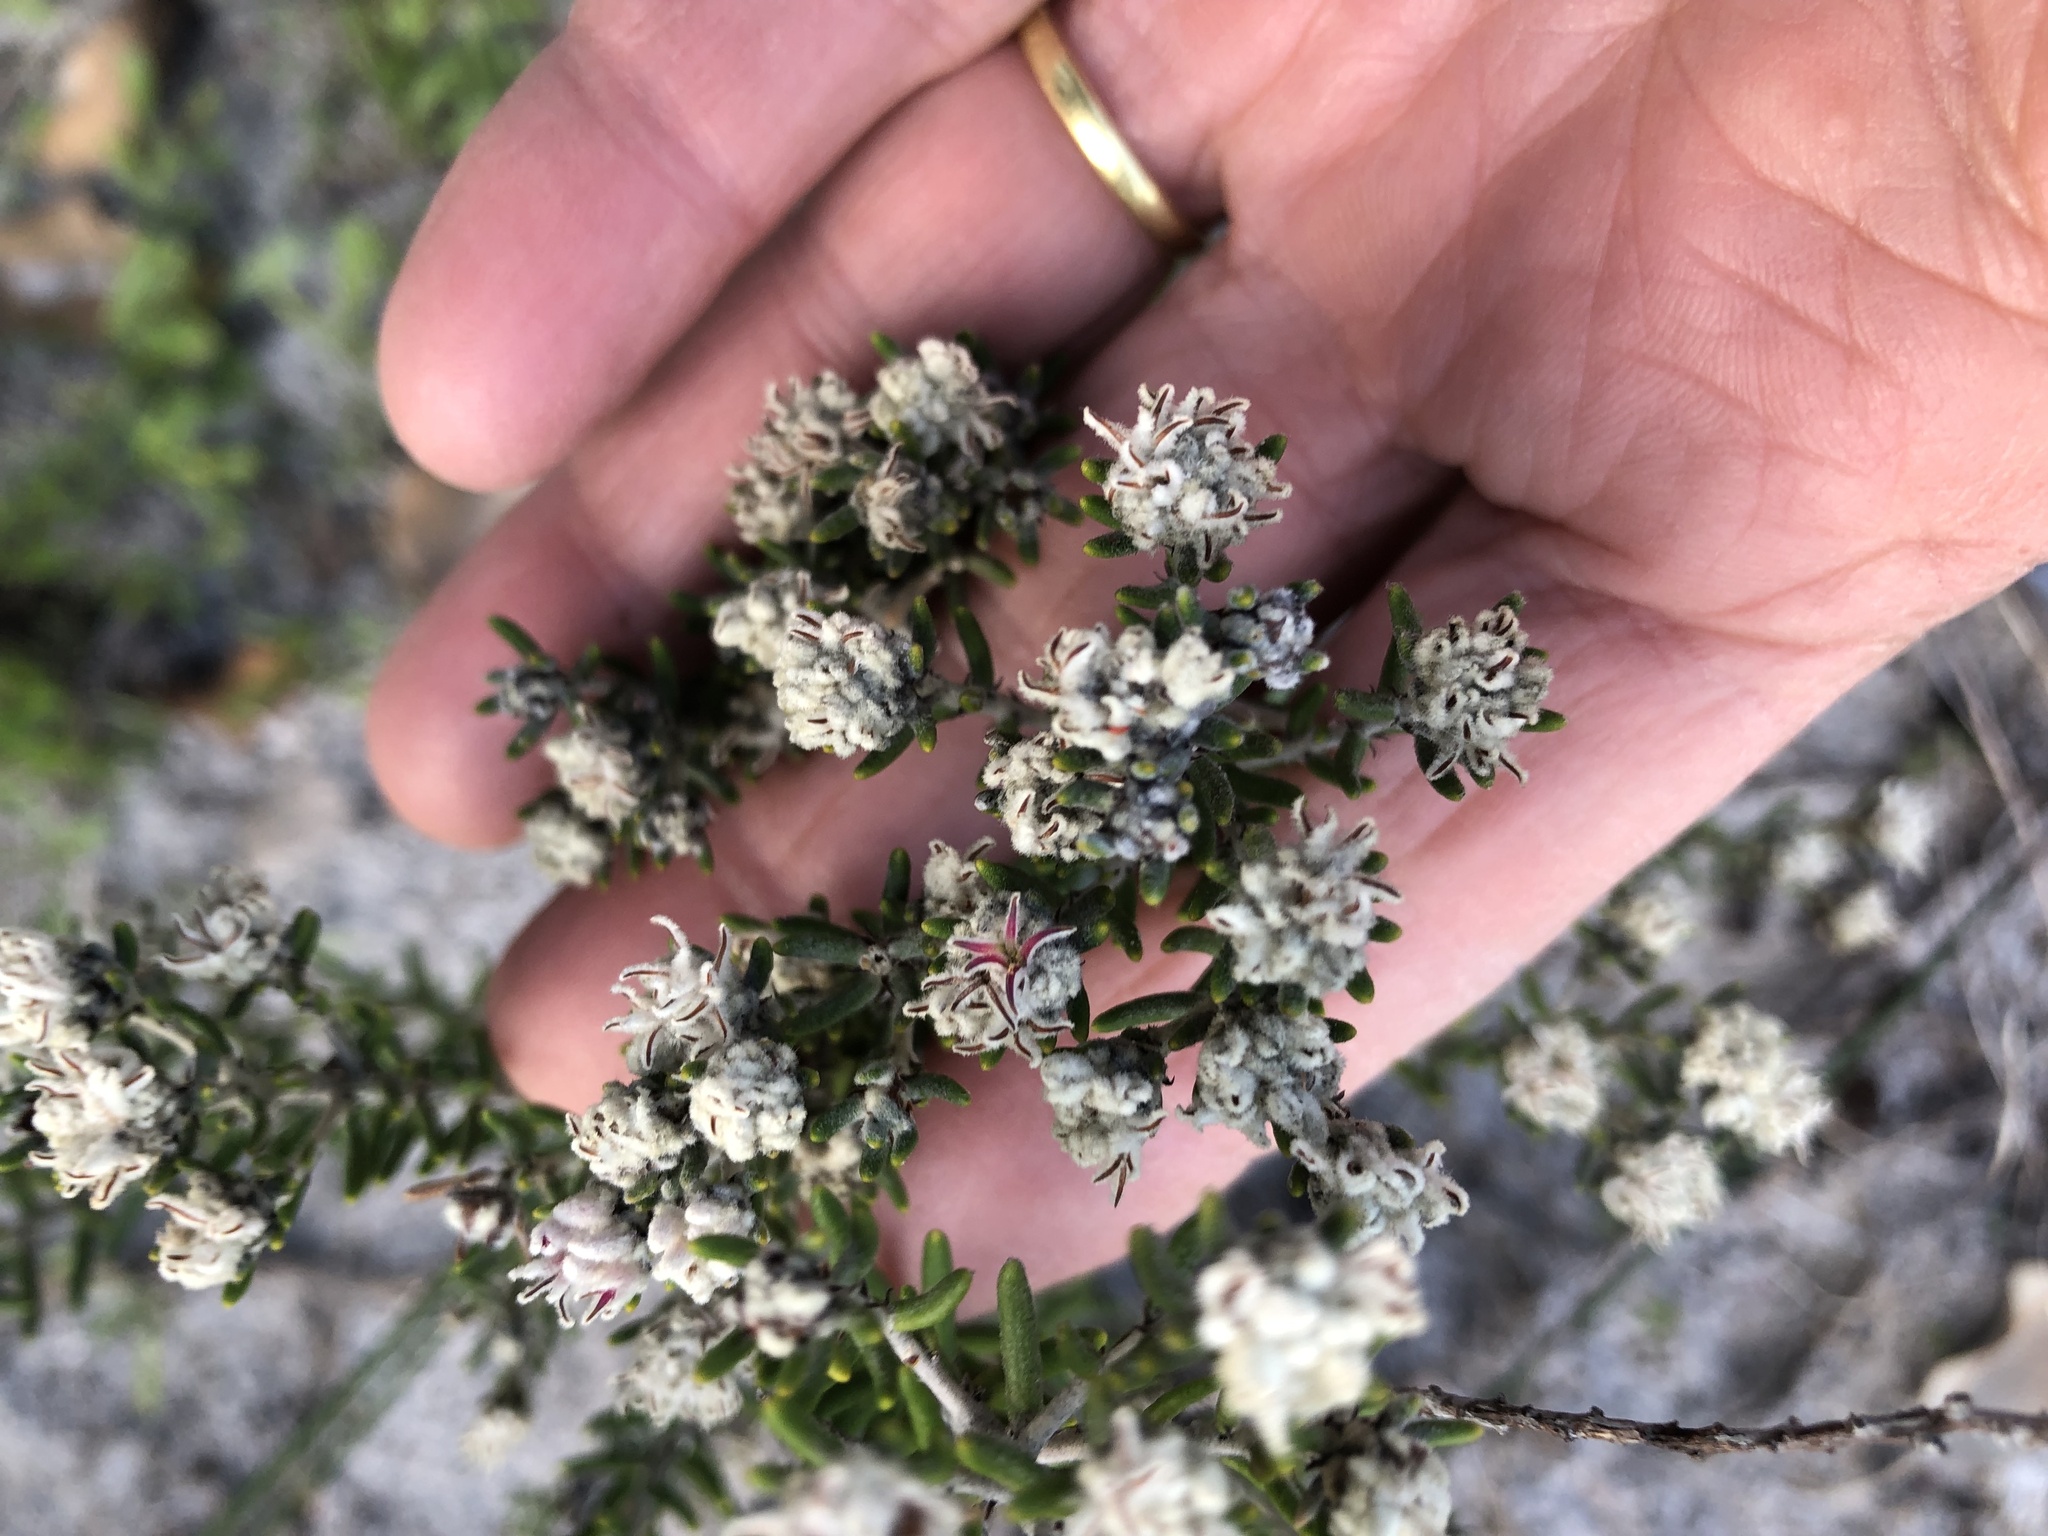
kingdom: Plantae
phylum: Tracheophyta
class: Magnoliopsida
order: Rosales
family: Rhamnaceae
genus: Trichocephalus
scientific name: Trichocephalus stipularis
